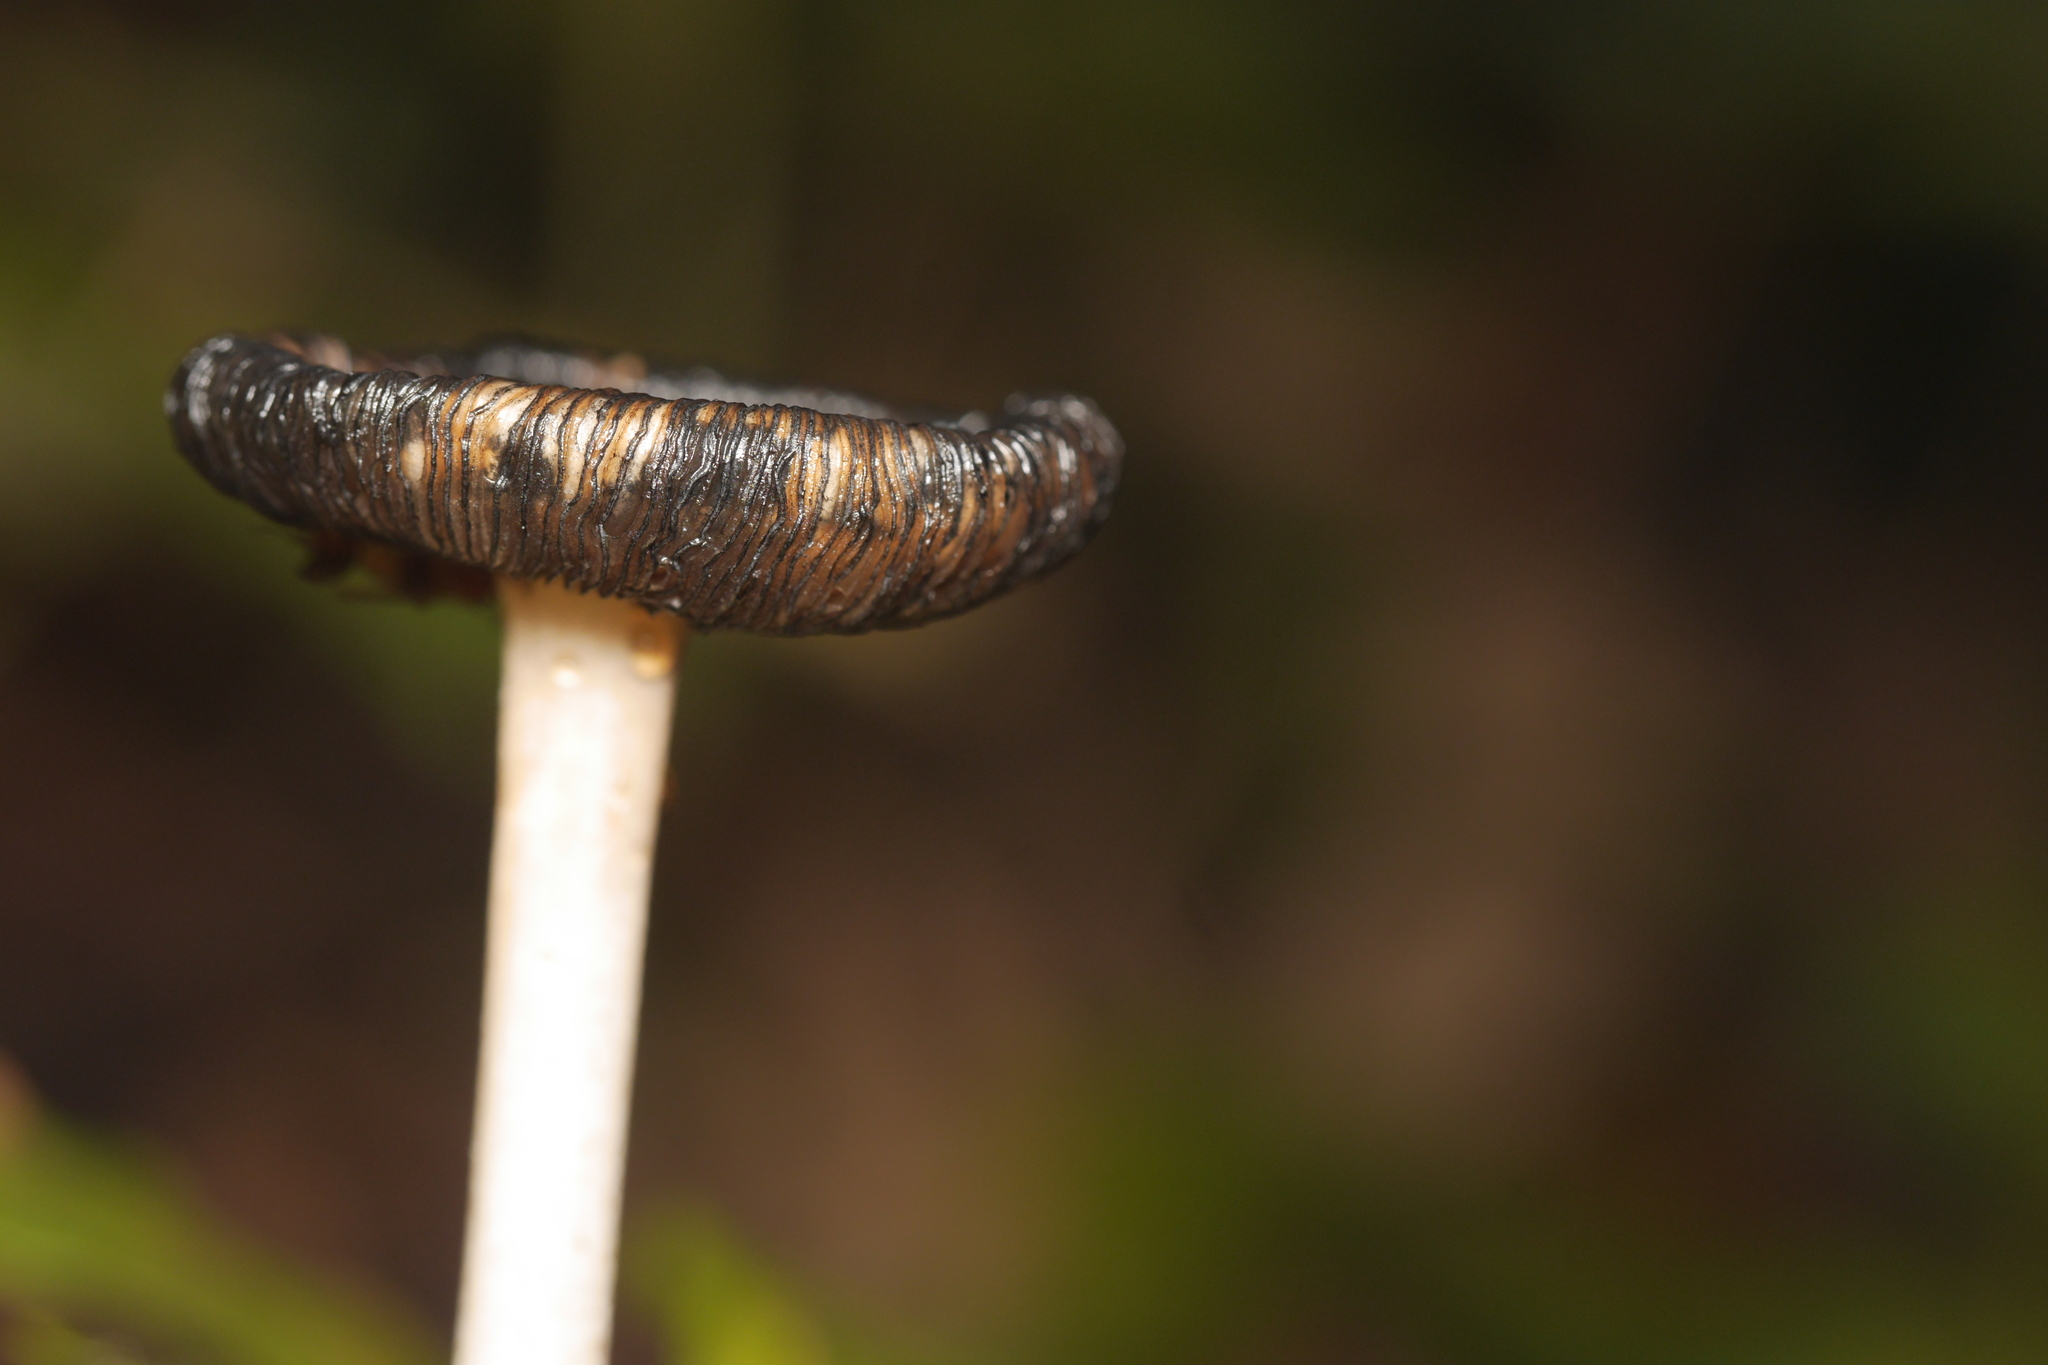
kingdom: Fungi
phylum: Basidiomycota
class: Agaricomycetes
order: Agaricales
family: Psathyrellaceae
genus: Coprinopsis
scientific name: Coprinopsis picacea
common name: Magpie inkcap
